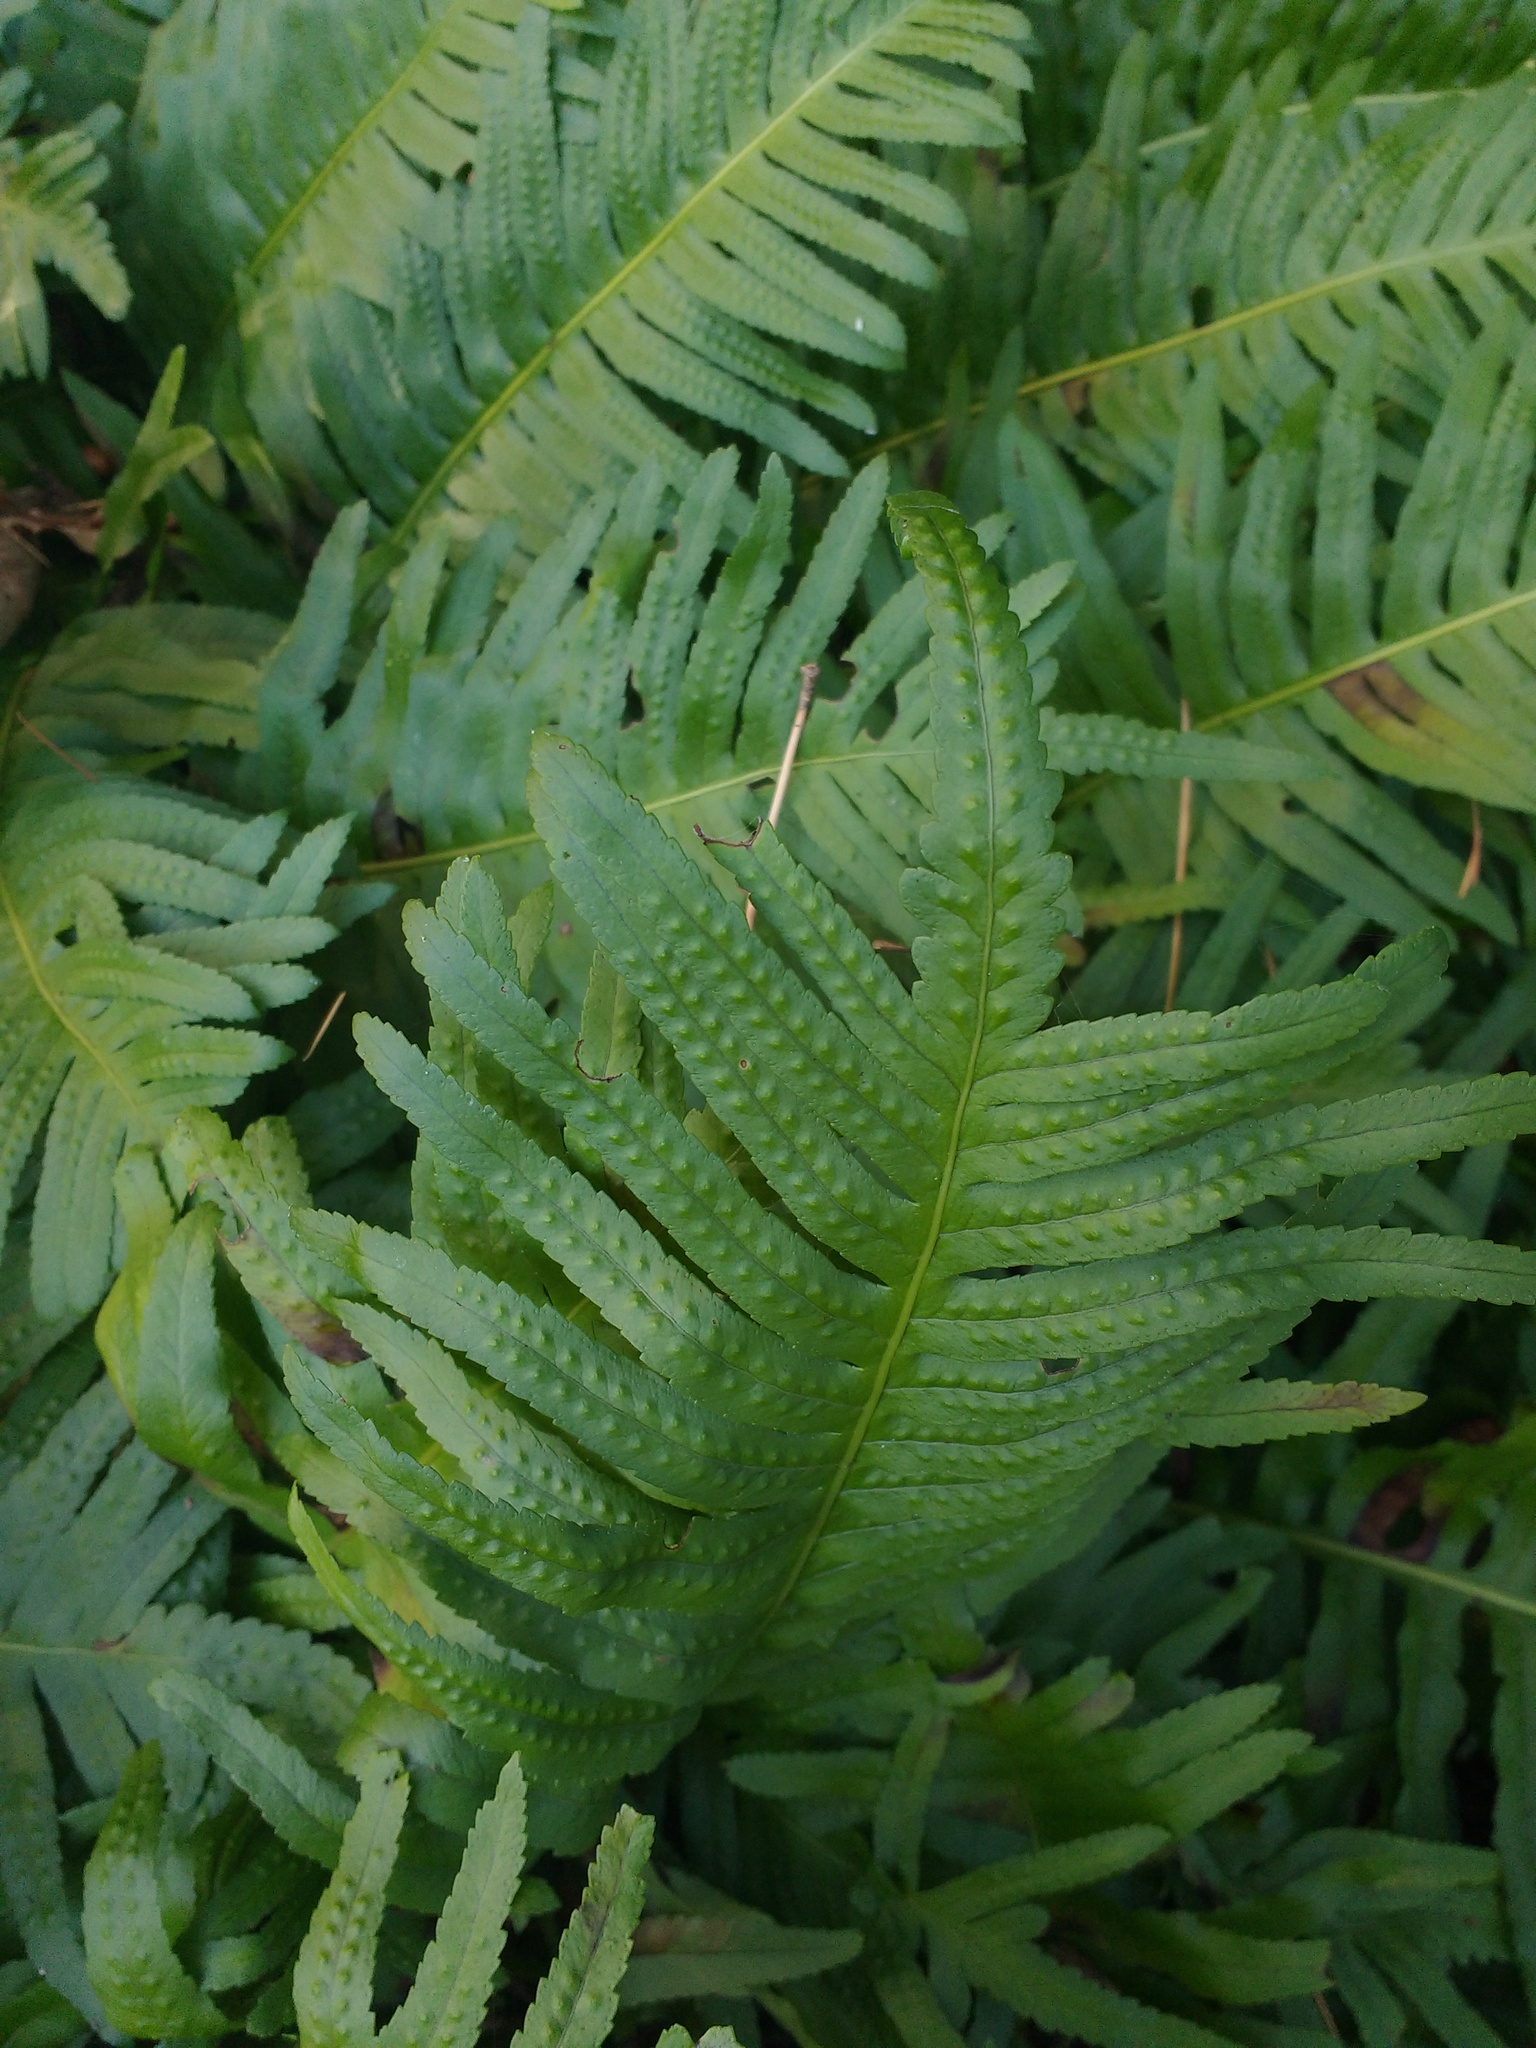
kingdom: Plantae
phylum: Tracheophyta
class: Polypodiopsida
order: Polypodiales
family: Polypodiaceae
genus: Polypodium
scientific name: Polypodium
